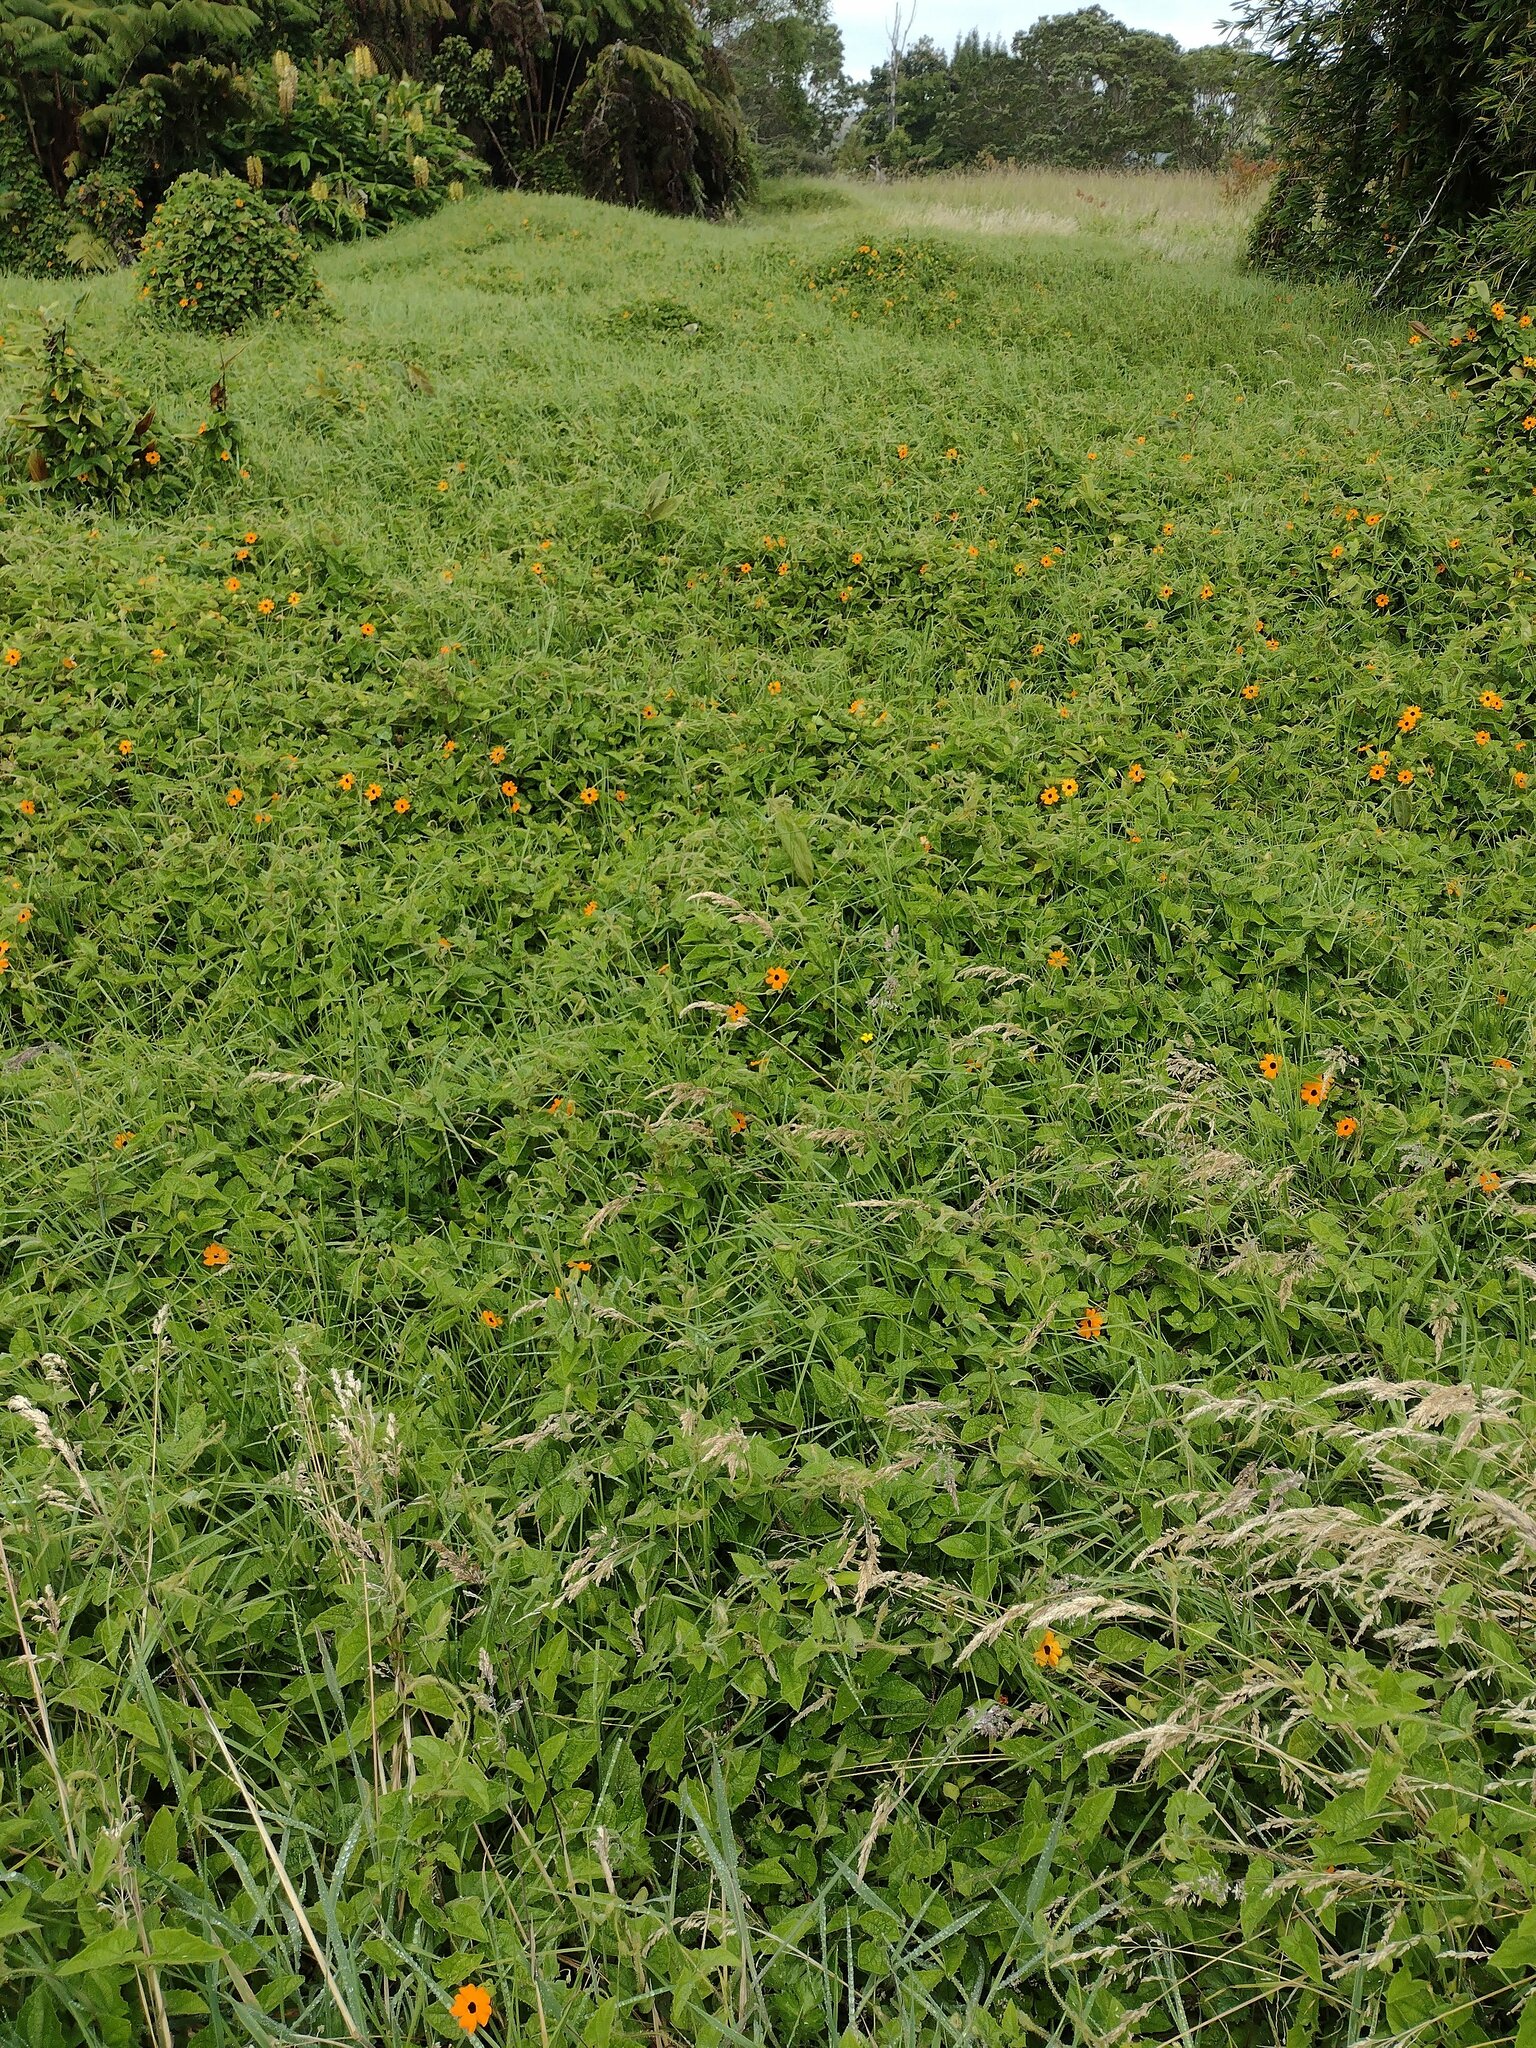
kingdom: Plantae
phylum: Tracheophyta
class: Magnoliopsida
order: Lamiales
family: Acanthaceae
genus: Thunbergia
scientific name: Thunbergia alata
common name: Blackeyed susan vine
